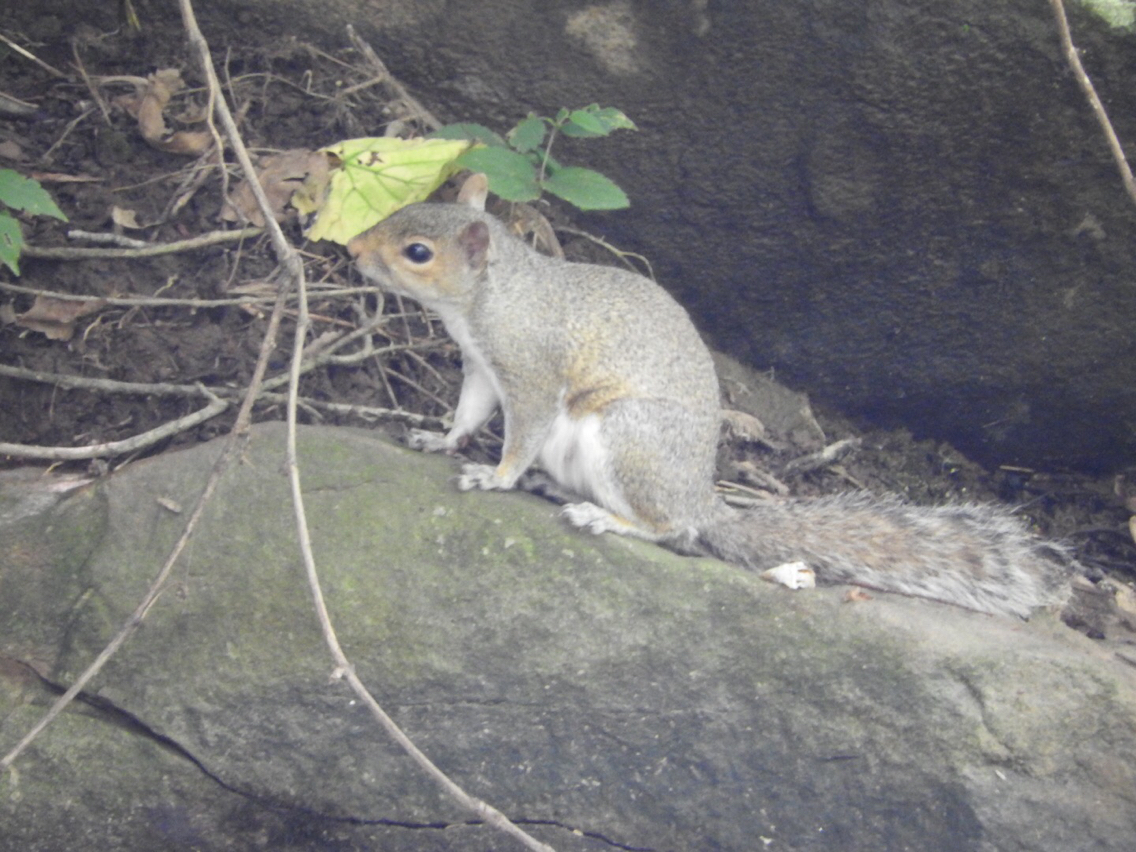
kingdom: Animalia
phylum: Chordata
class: Mammalia
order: Rodentia
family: Sciuridae
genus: Sciurus
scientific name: Sciurus carolinensis
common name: Eastern gray squirrel
